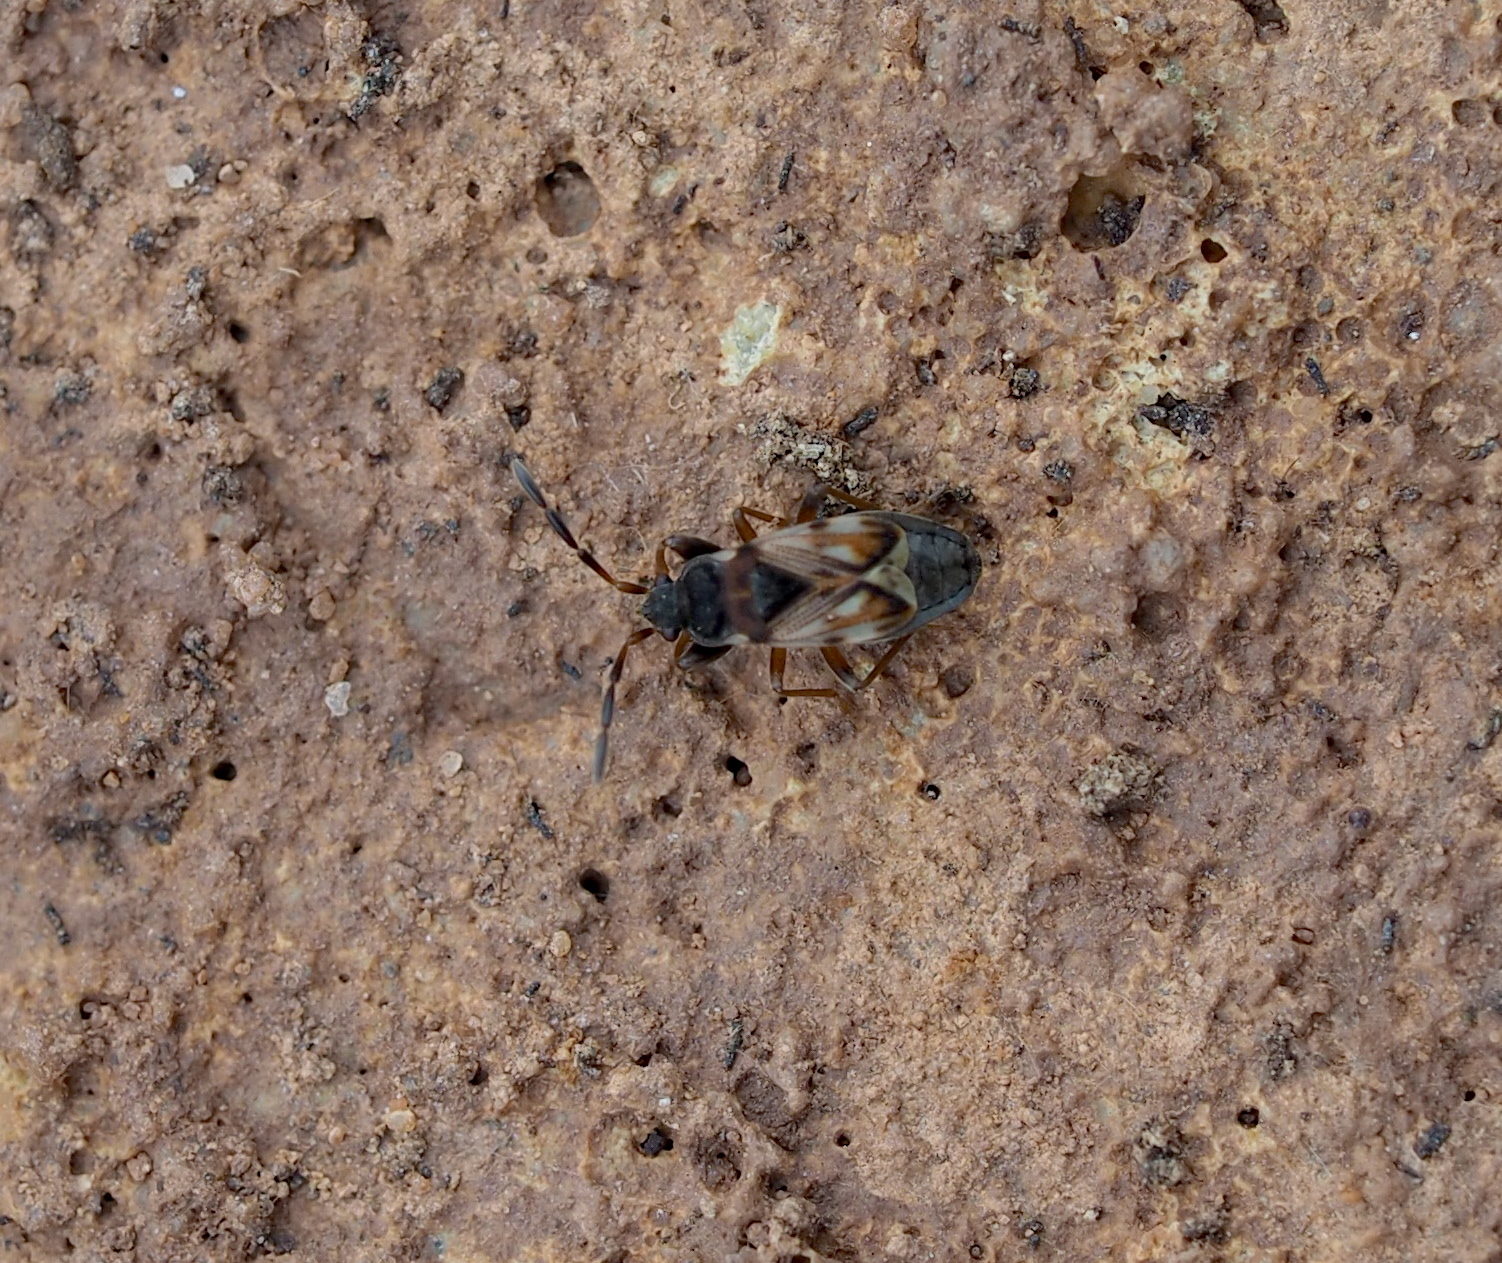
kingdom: Animalia
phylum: Arthropoda
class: Insecta
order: Hemiptera
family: Rhyparochromidae
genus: Scolopostethus
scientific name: Scolopostethus thomsoni
